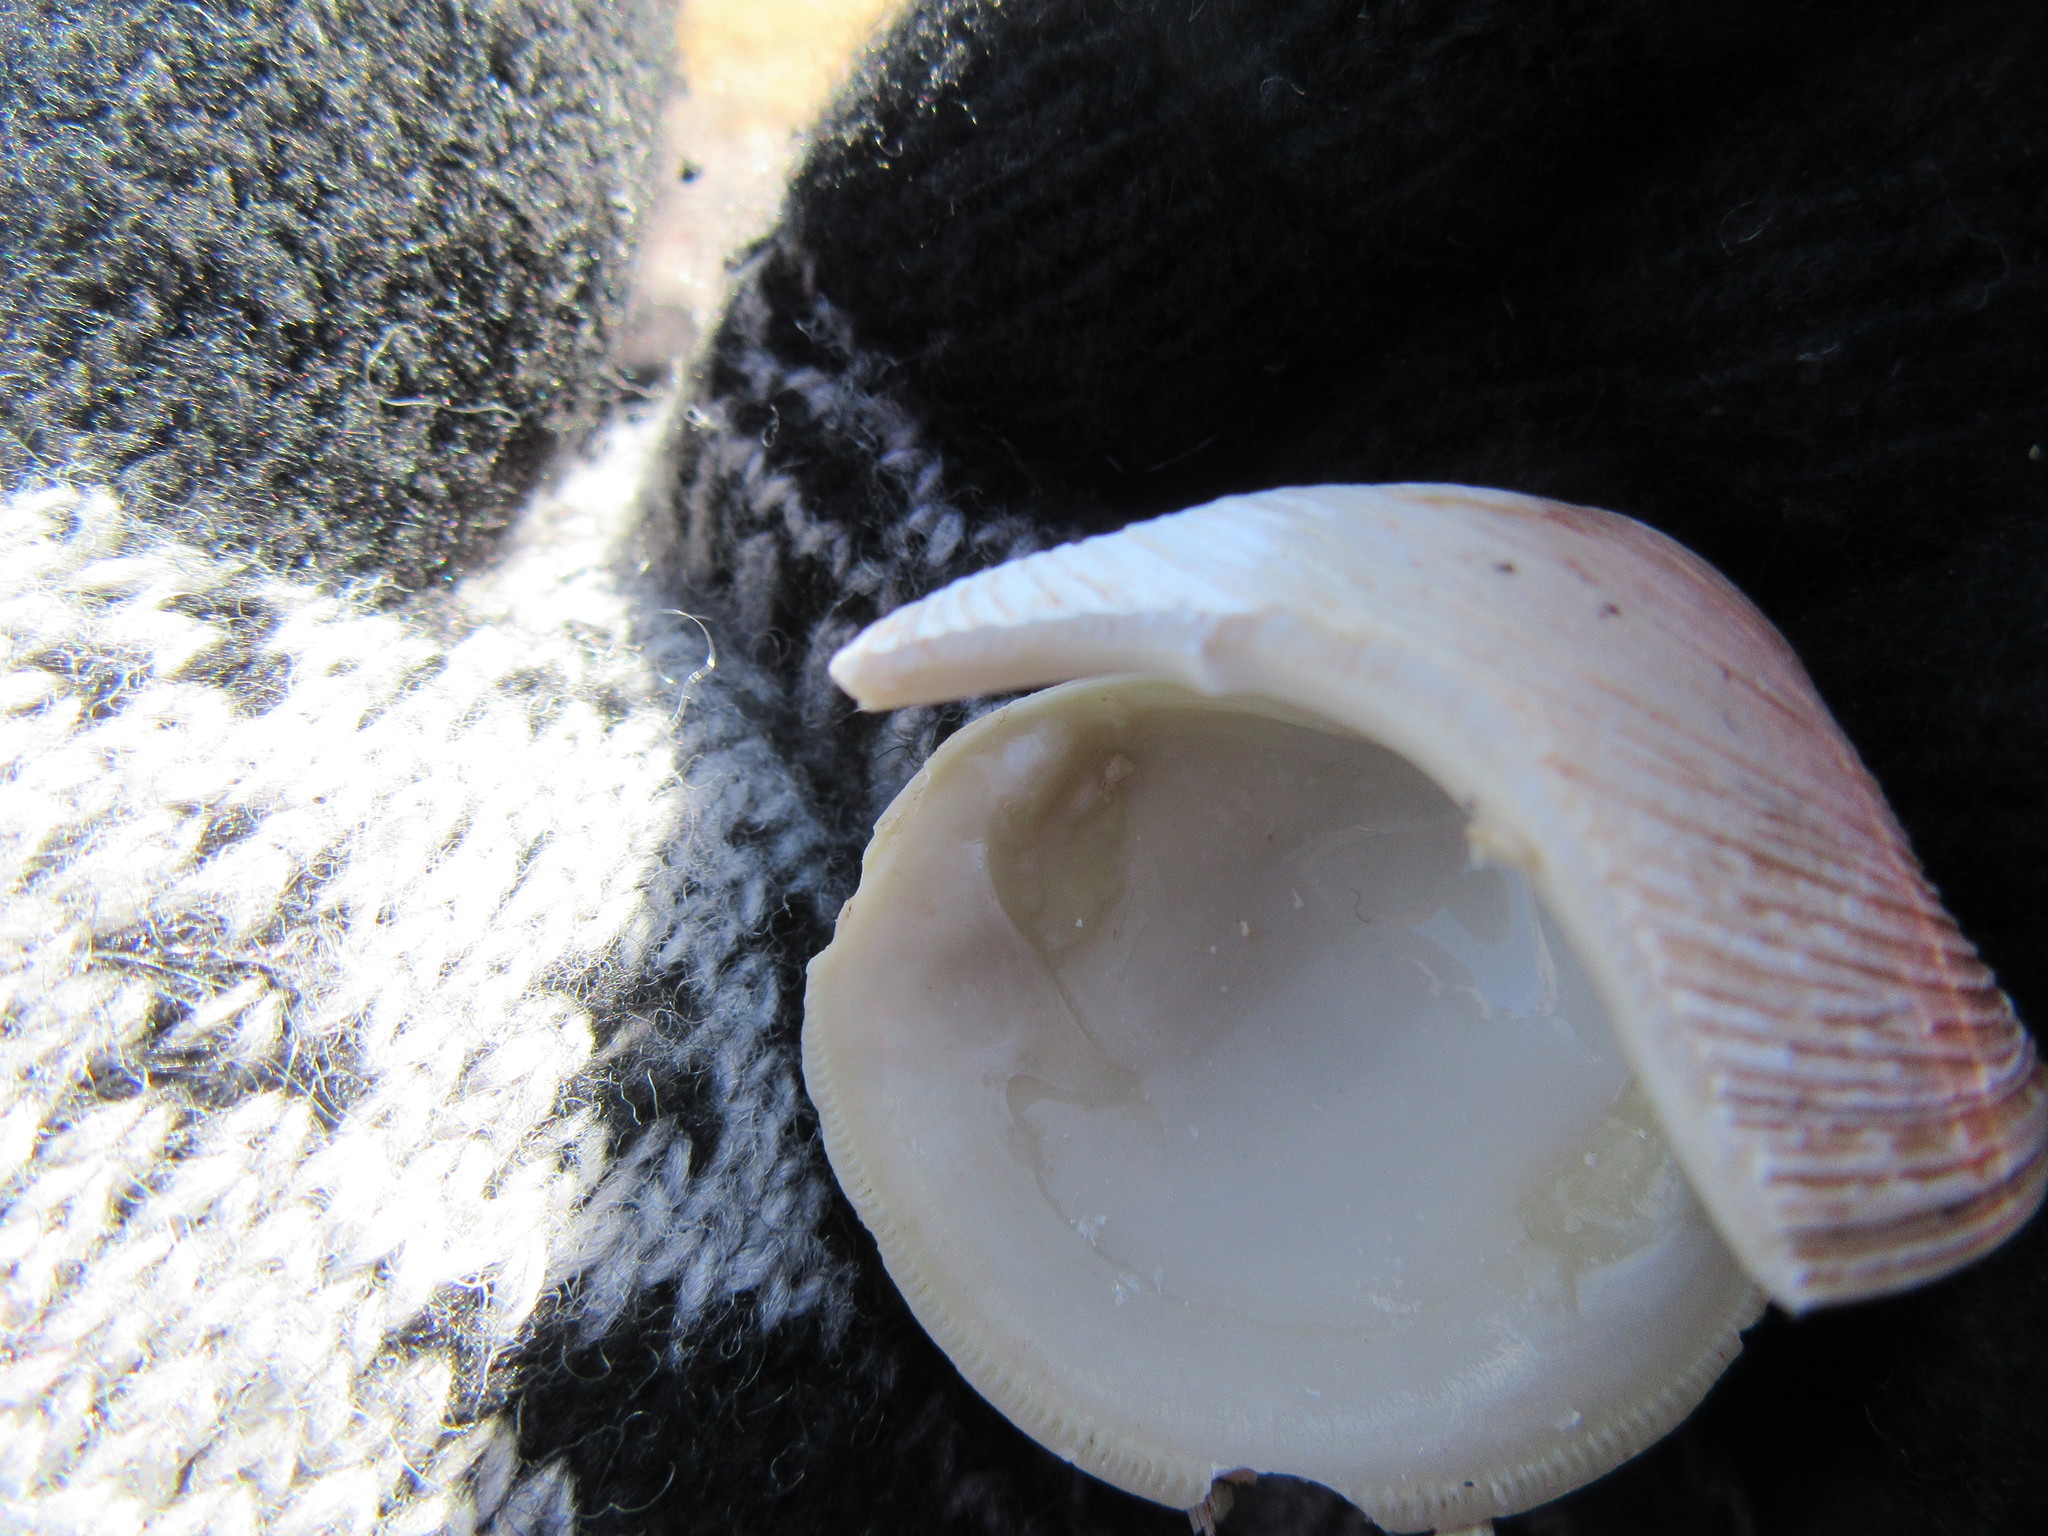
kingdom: Animalia
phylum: Mollusca
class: Bivalvia
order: Venerida
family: Veneridae
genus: Mercenaria
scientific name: Mercenaria mercenaria
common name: American hard-shelled clam
